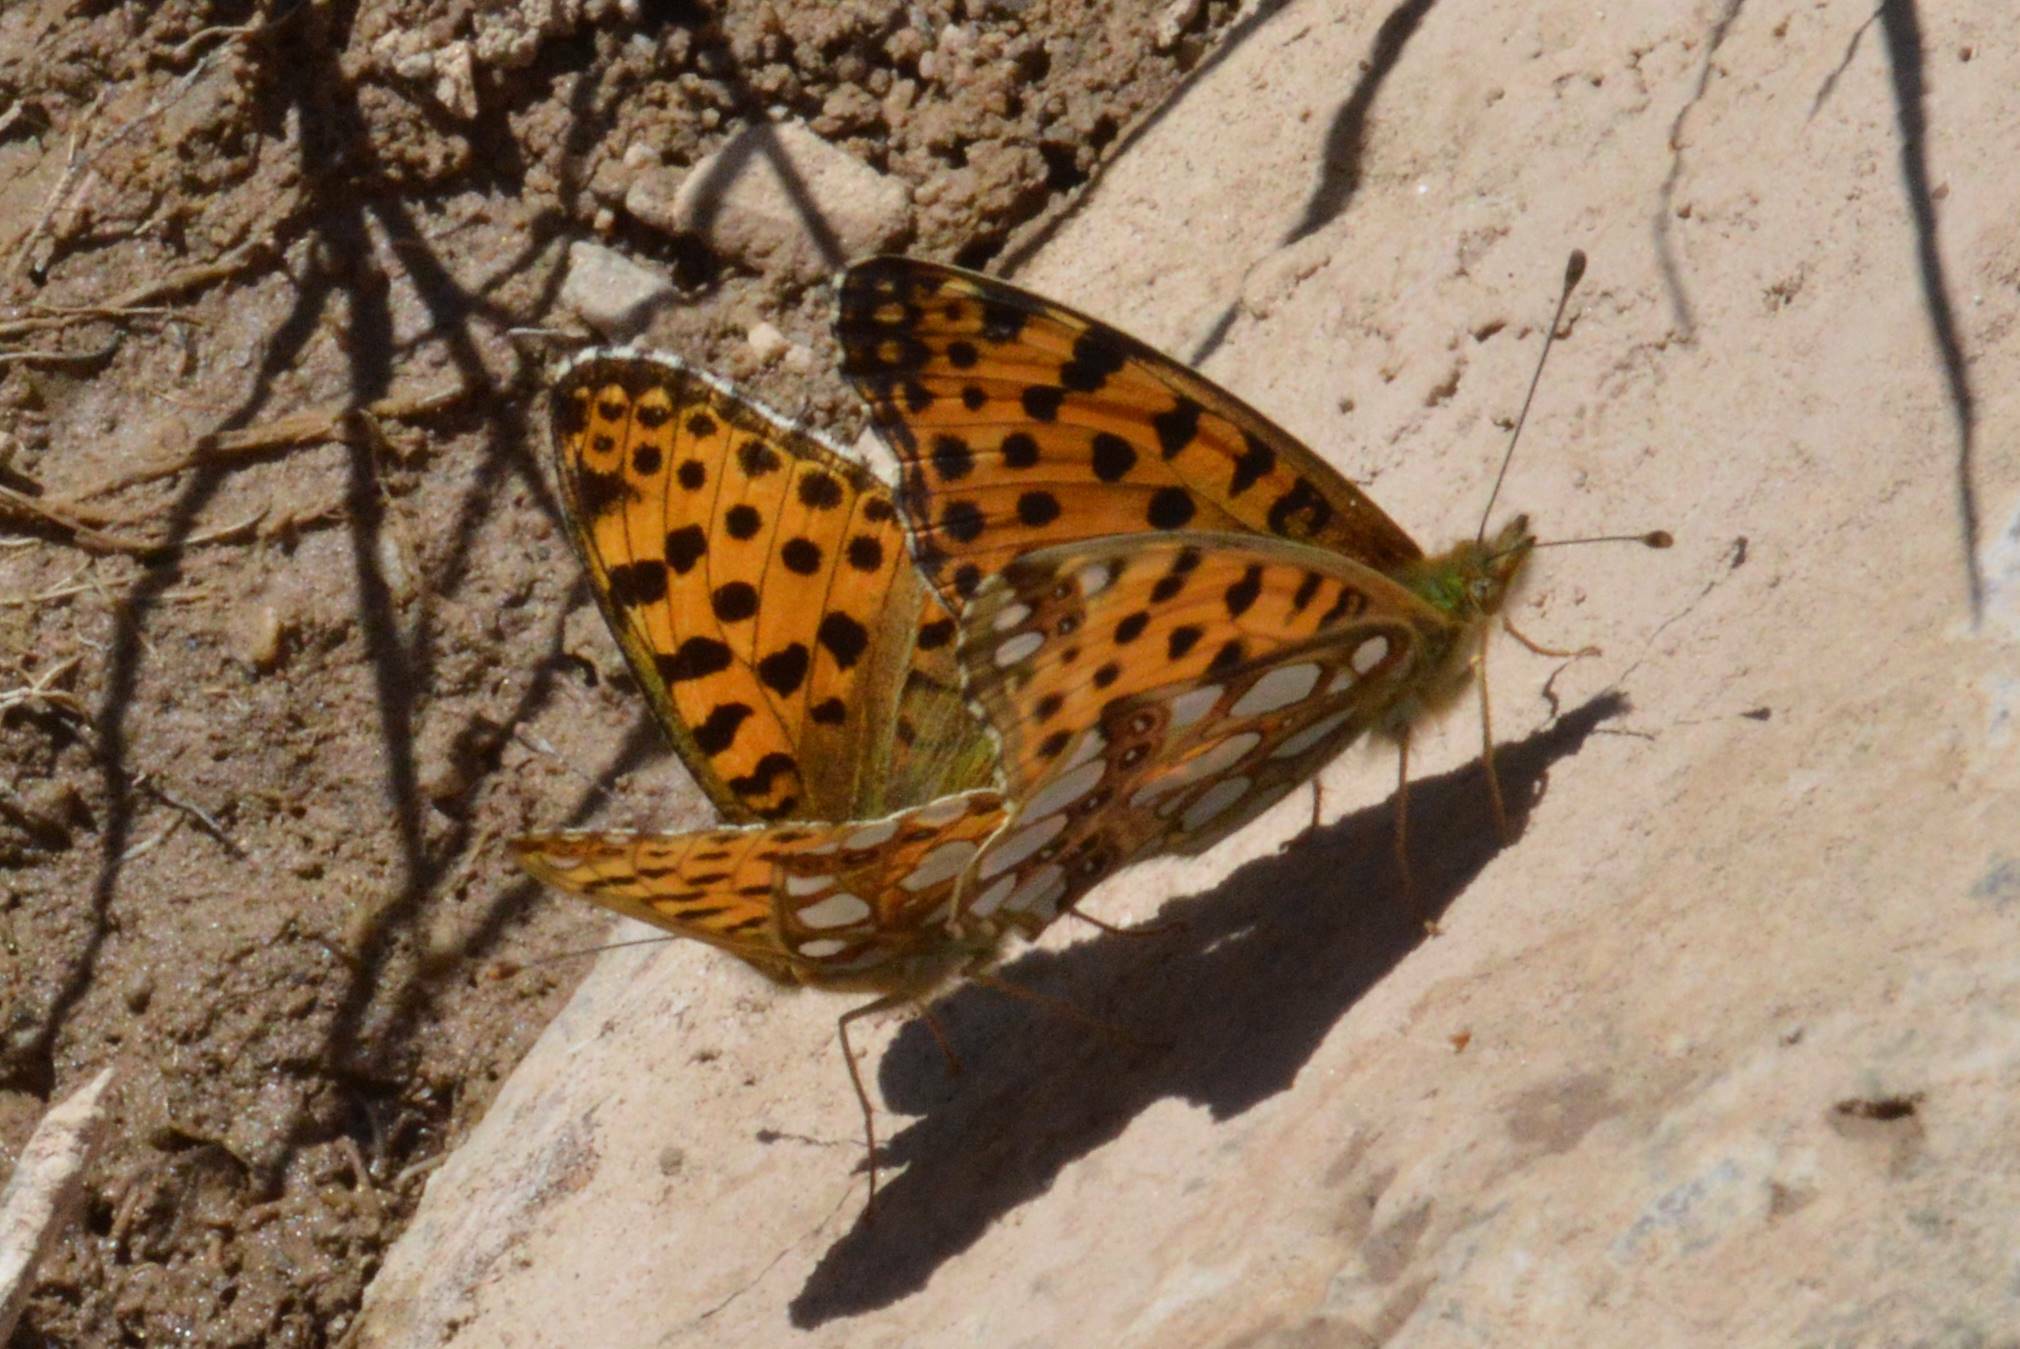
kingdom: Animalia
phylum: Arthropoda
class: Insecta
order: Lepidoptera
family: Nymphalidae
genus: Issoria
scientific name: Issoria lathonia
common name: Queen of spain fritillary
